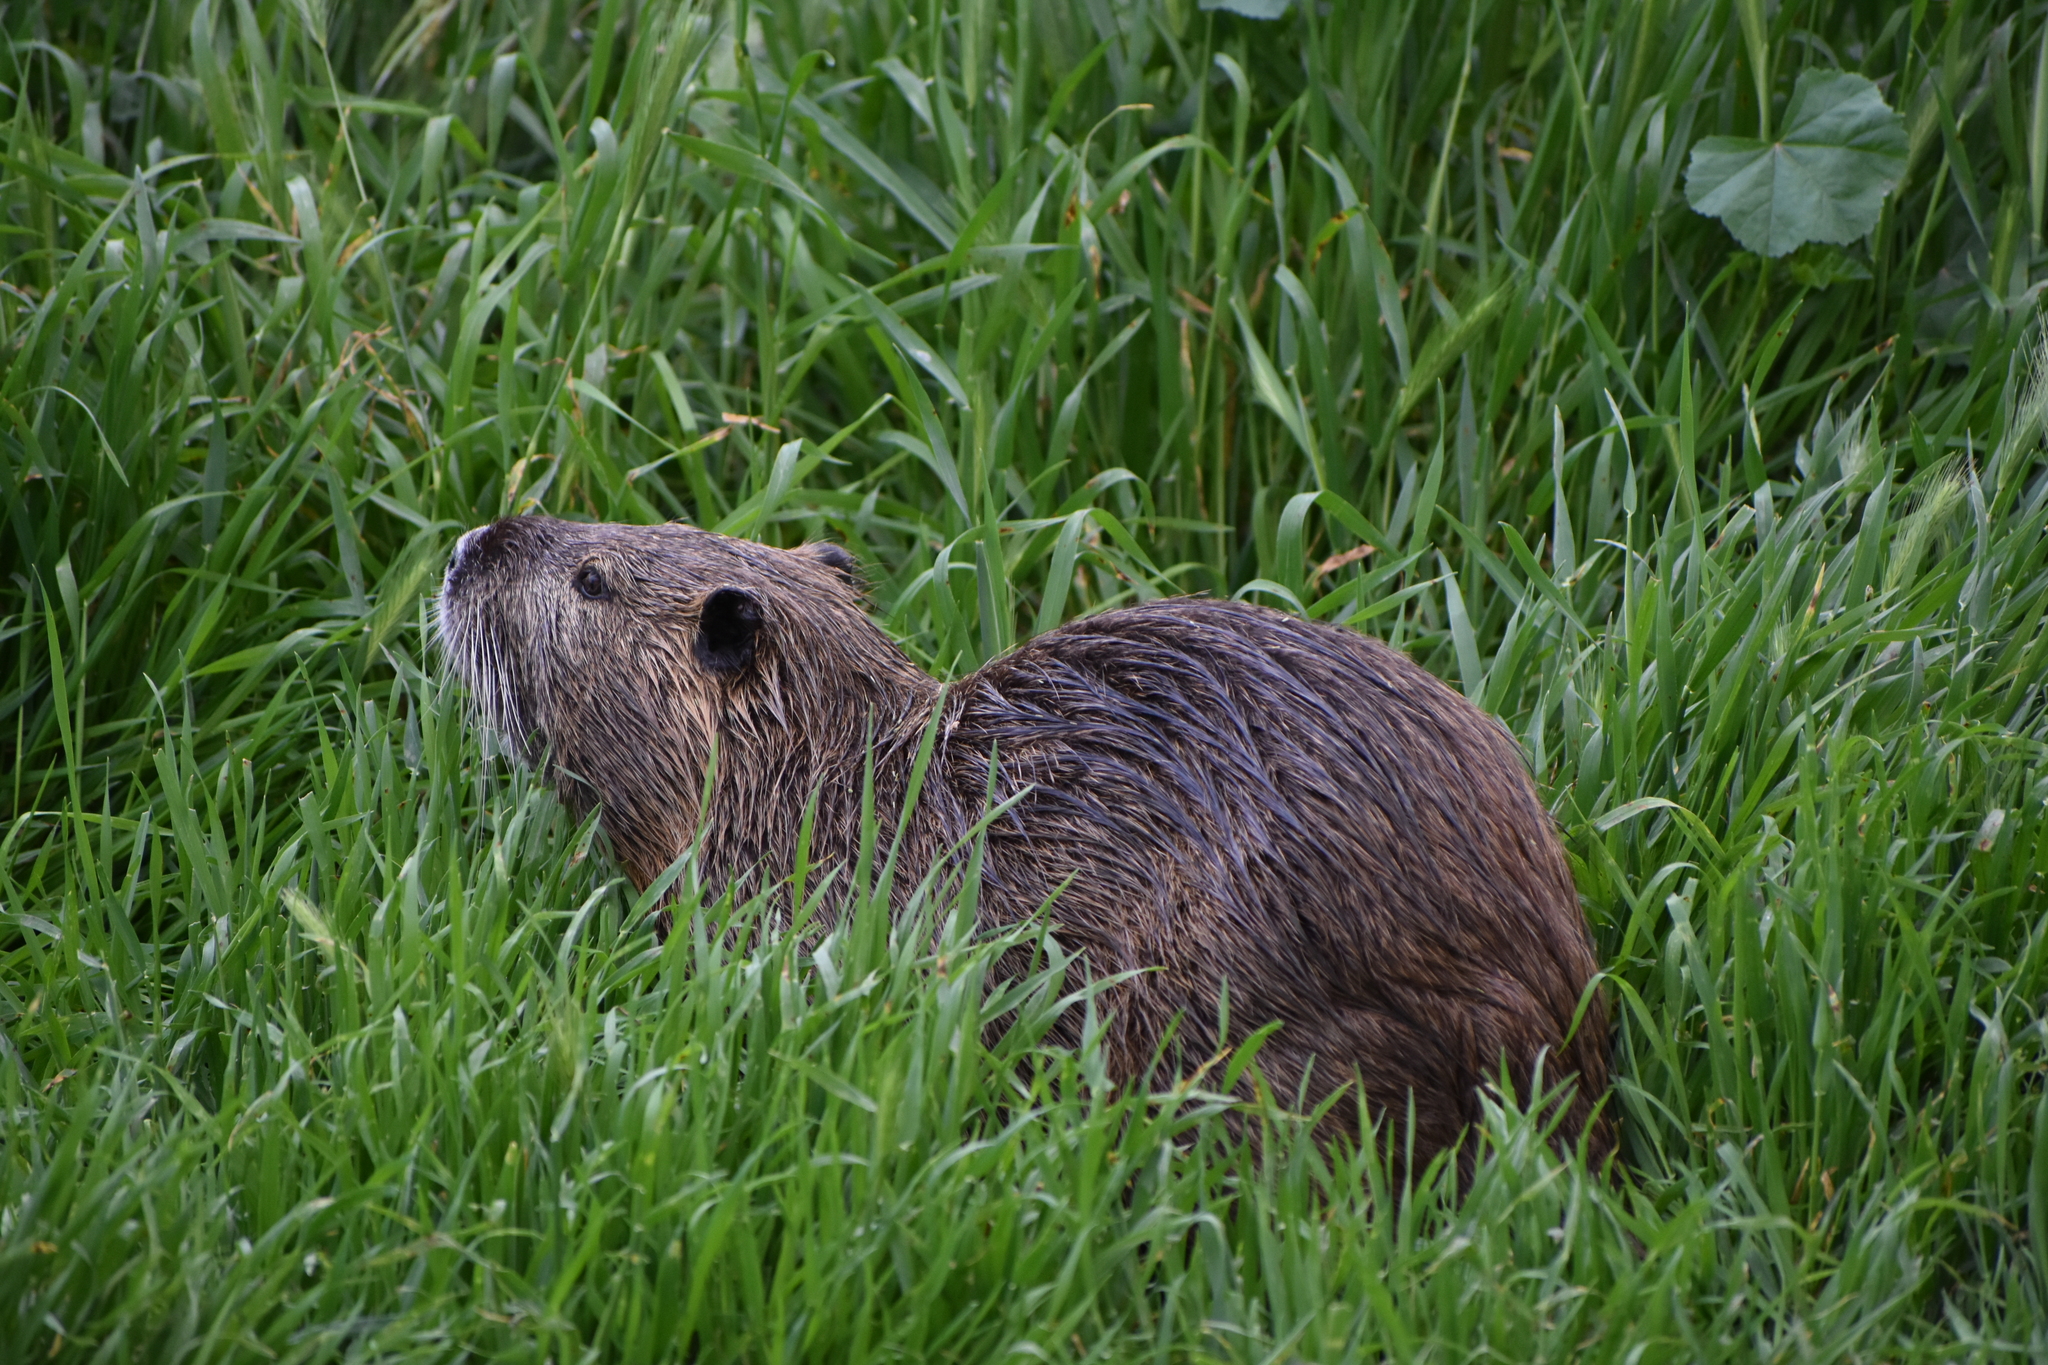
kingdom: Animalia
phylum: Chordata
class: Mammalia
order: Rodentia
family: Myocastoridae
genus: Myocastor
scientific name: Myocastor coypus
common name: Coypu
